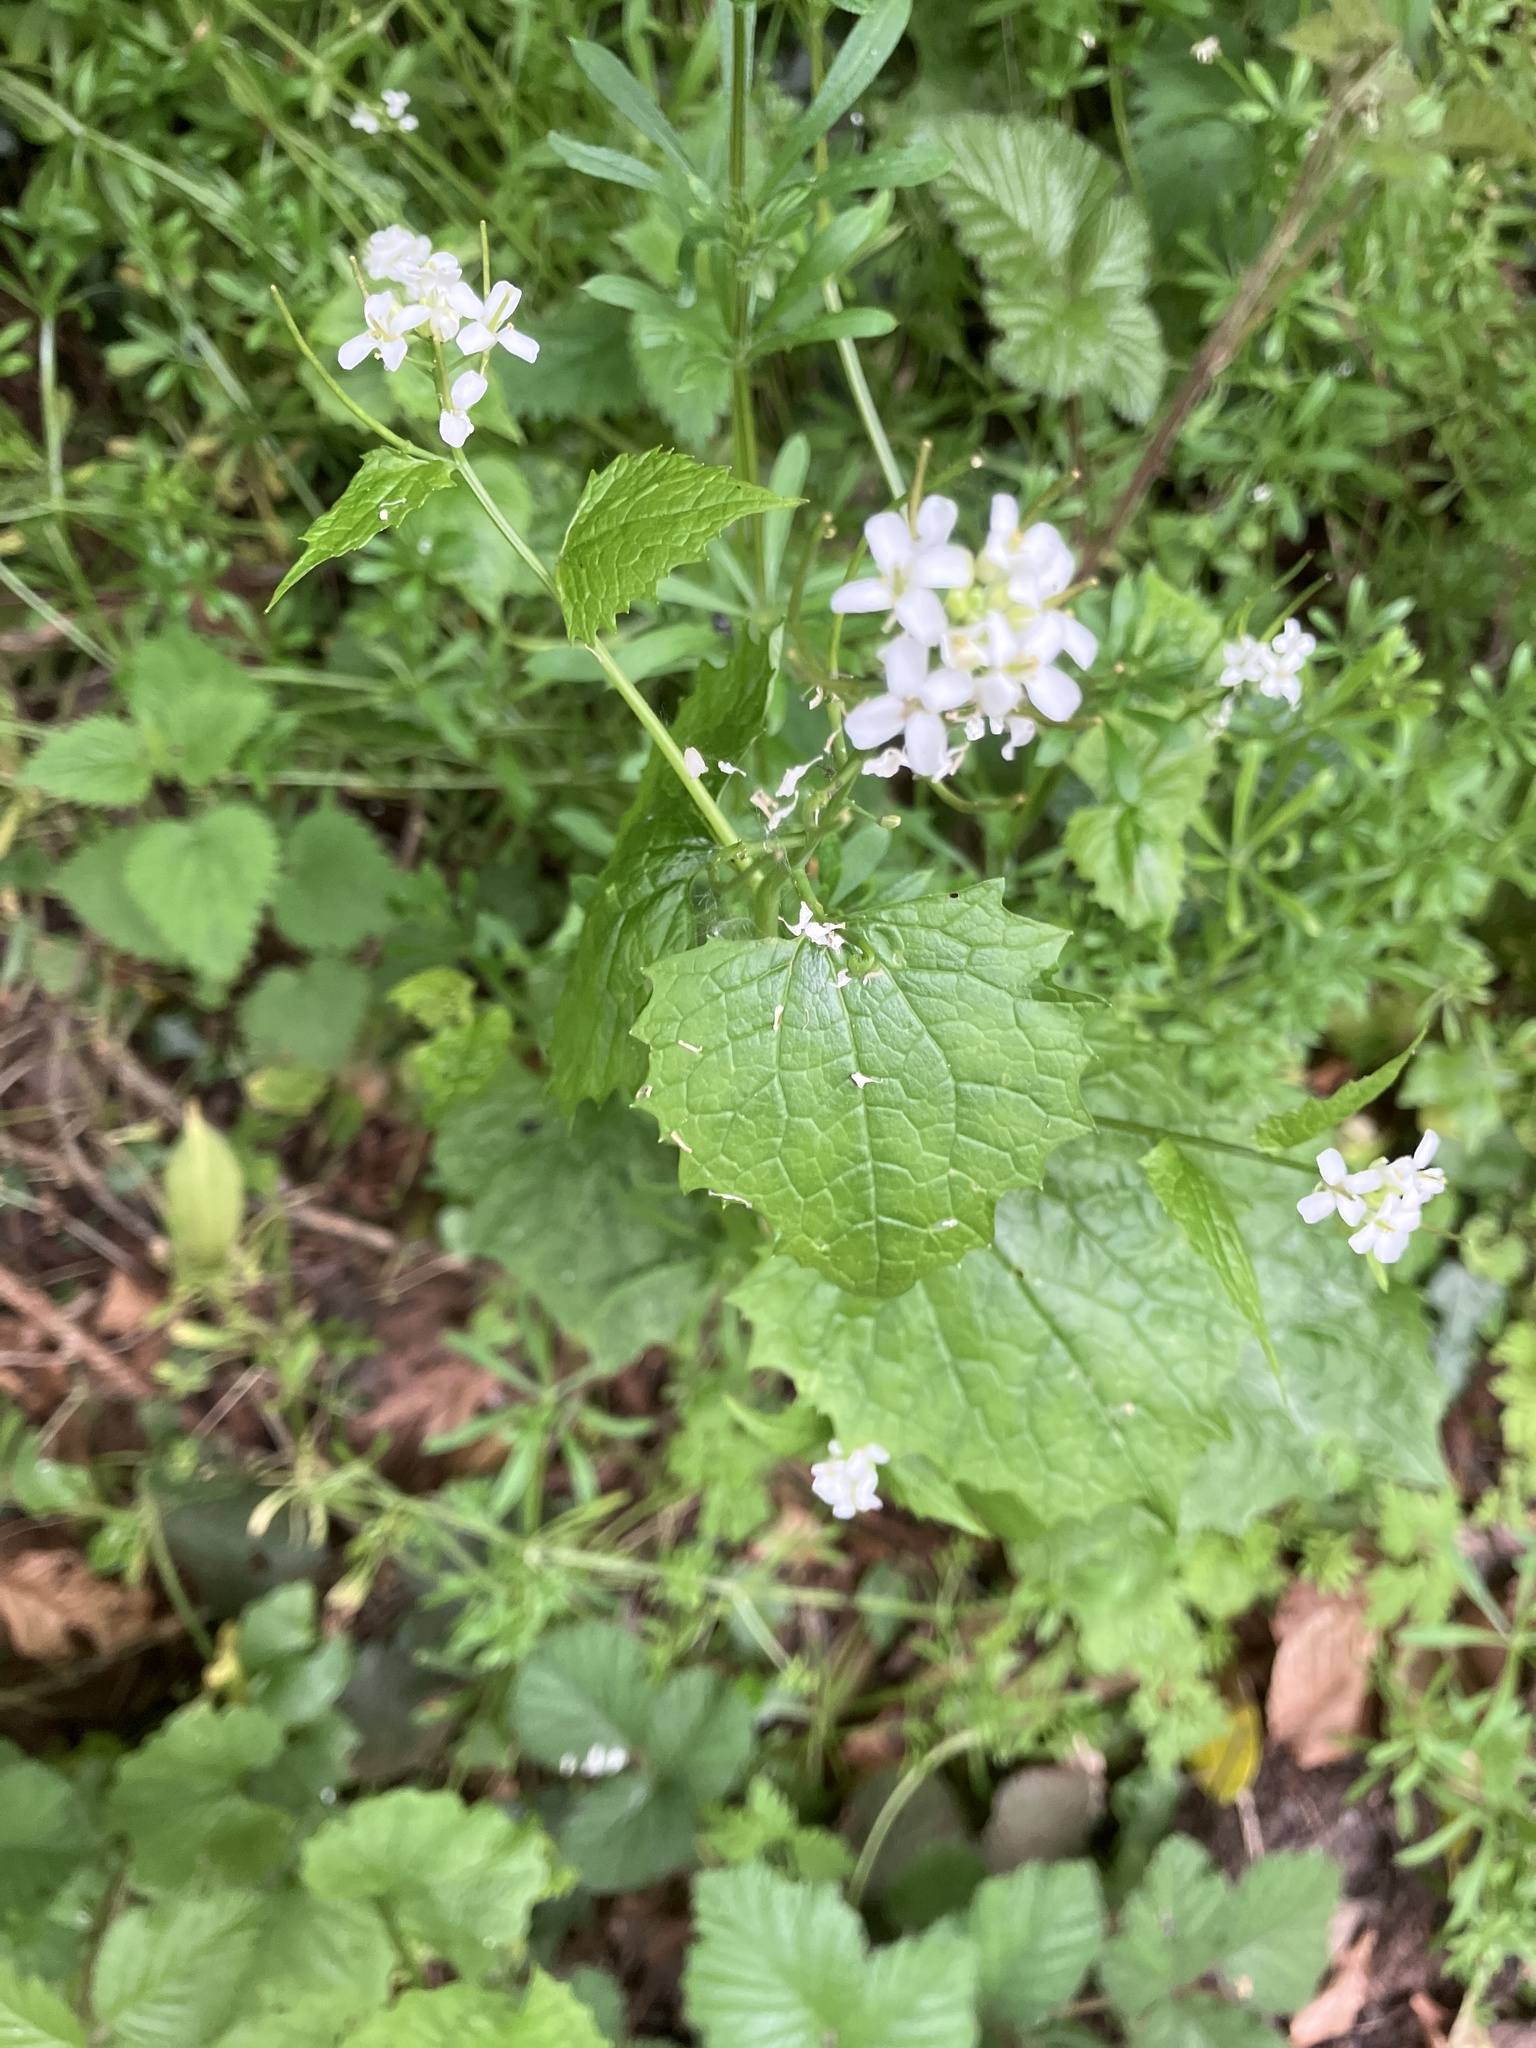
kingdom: Plantae
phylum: Tracheophyta
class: Magnoliopsida
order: Brassicales
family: Brassicaceae
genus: Alliaria
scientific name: Alliaria petiolata
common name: Garlic mustard
